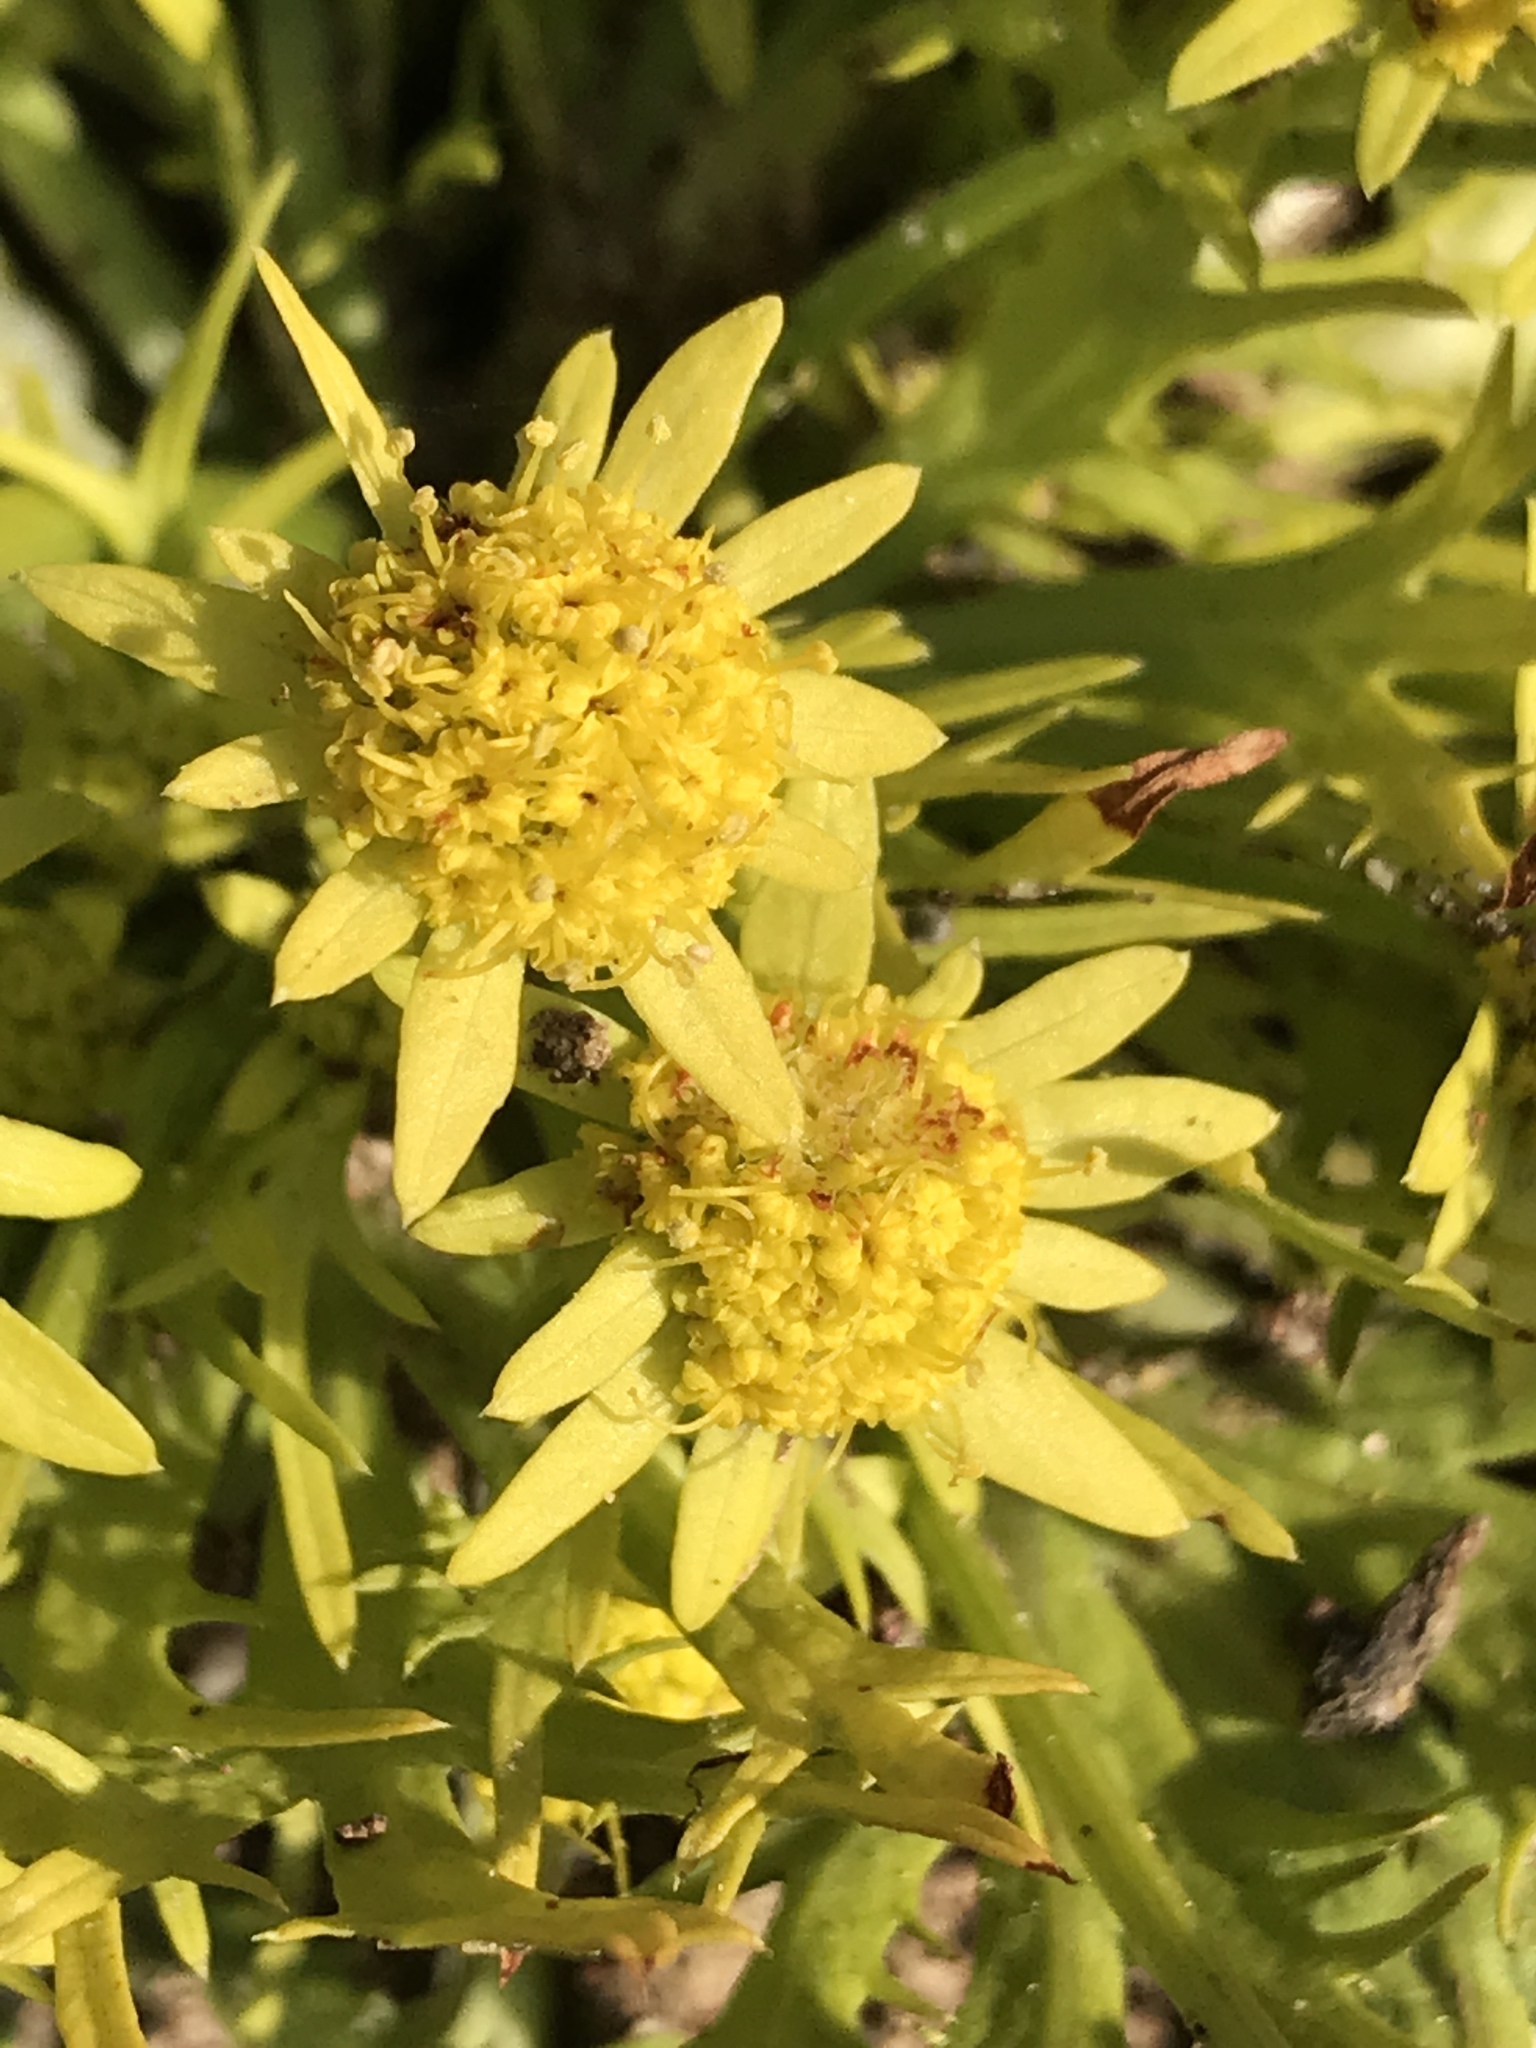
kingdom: Plantae
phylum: Tracheophyta
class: Magnoliopsida
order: Apiales
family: Apiaceae
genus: Sanicula
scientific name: Sanicula arctopoides
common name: Footsteps-of-spring
